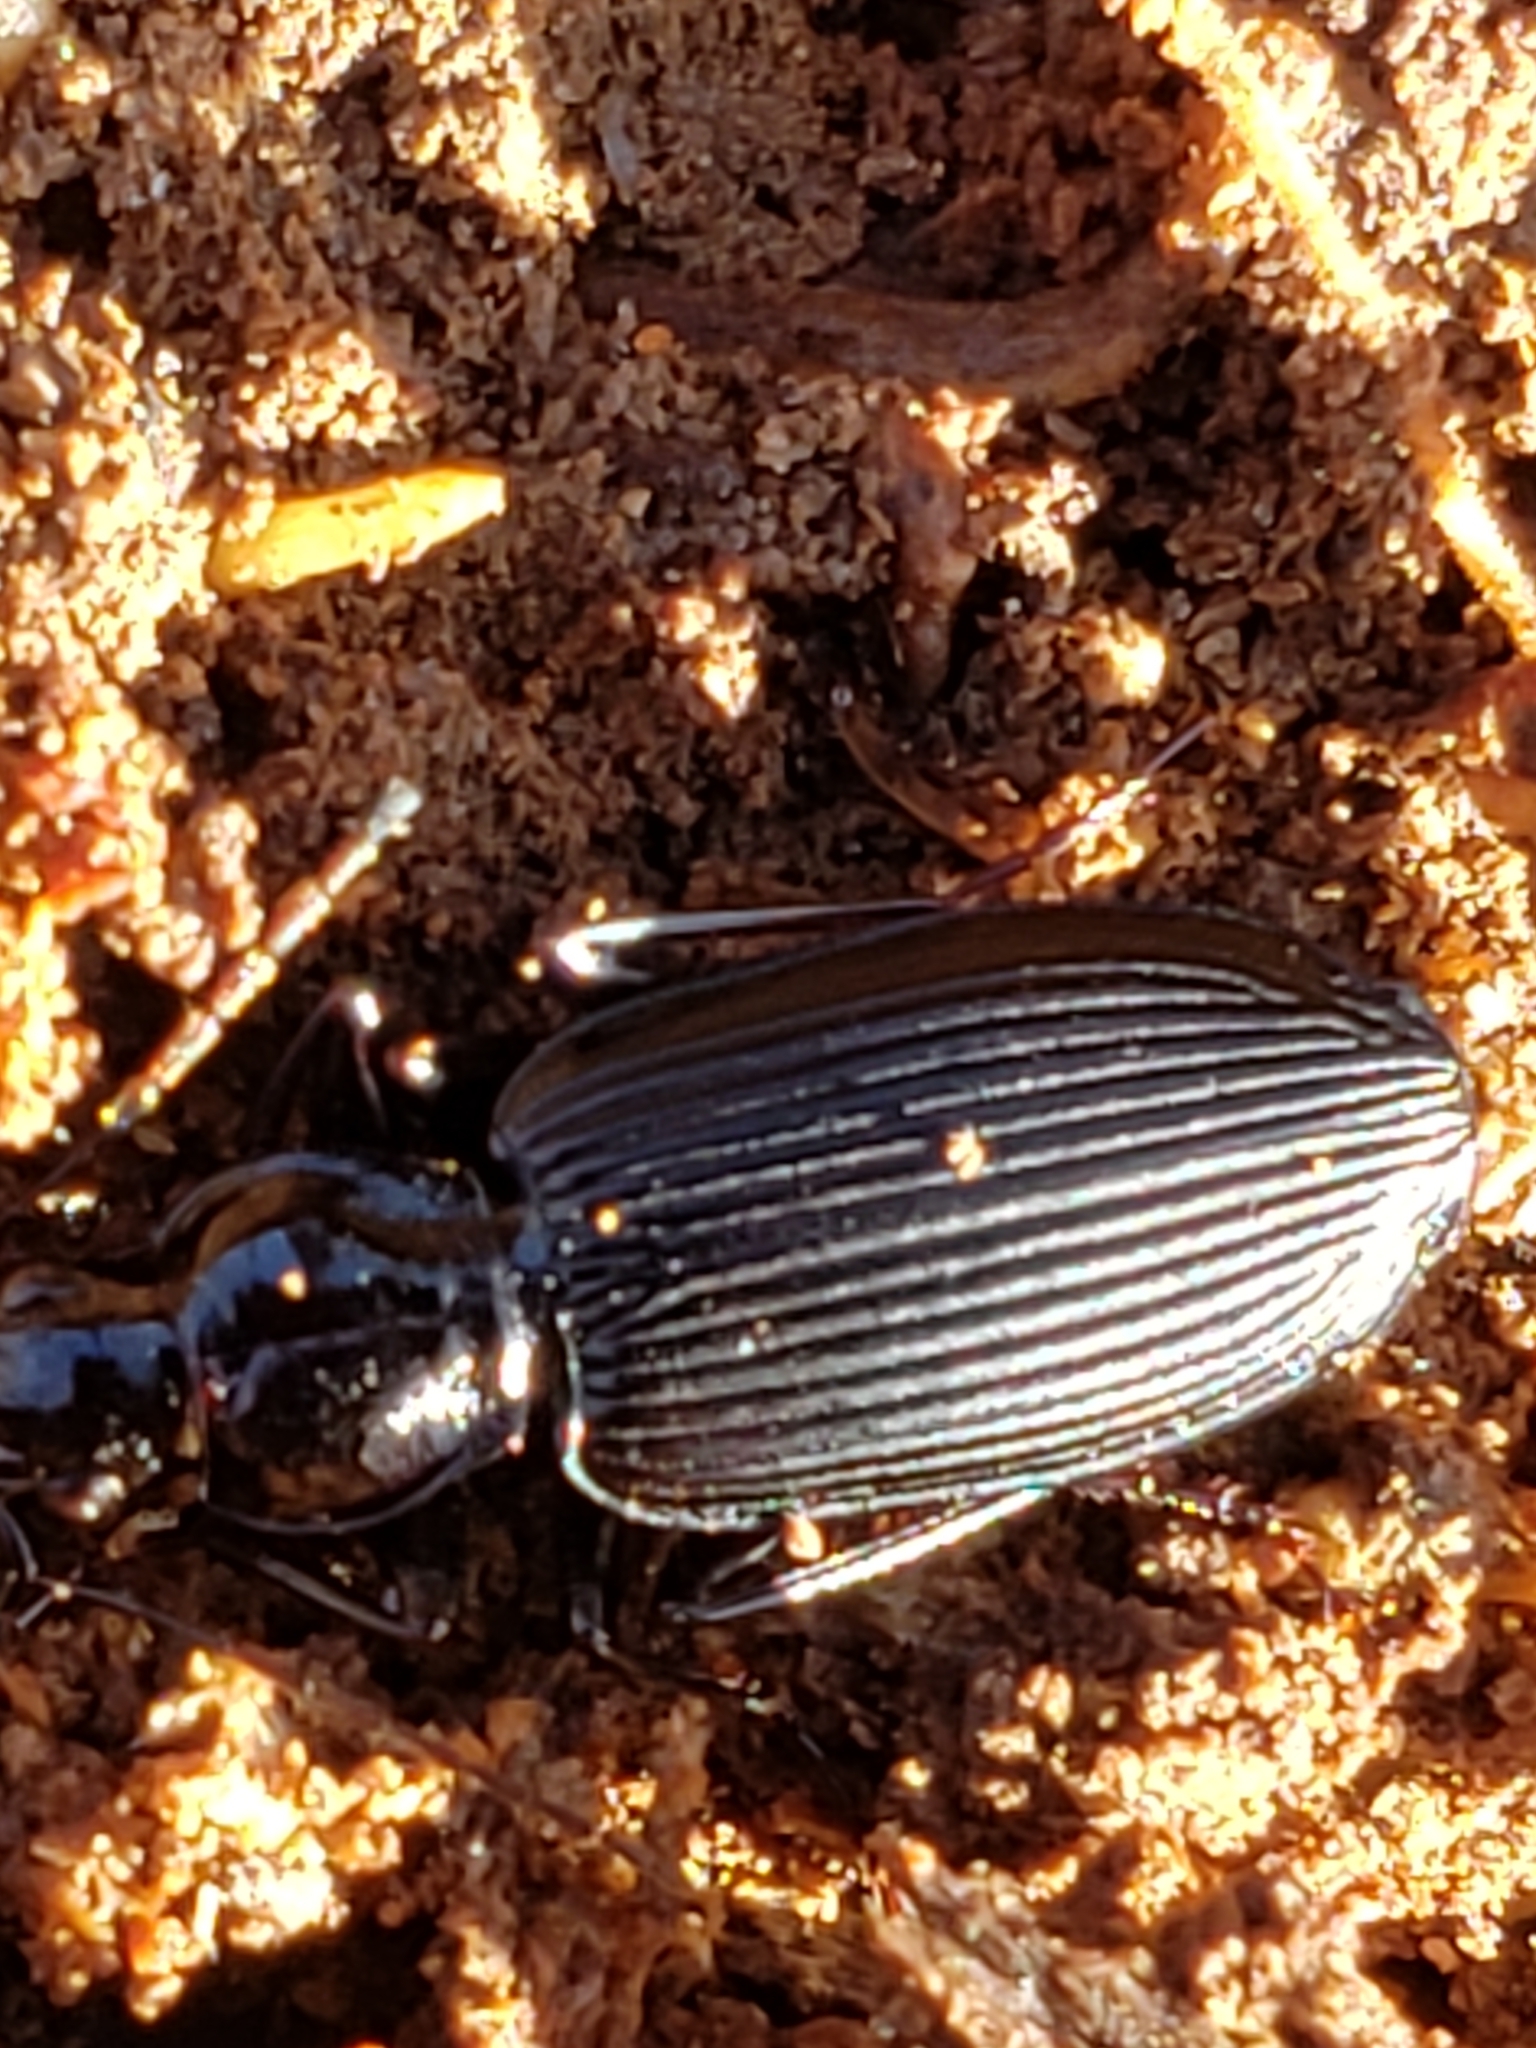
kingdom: Animalia
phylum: Arthropoda
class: Insecta
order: Coleoptera
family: Carabidae
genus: Platynus
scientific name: Platynus decentis
